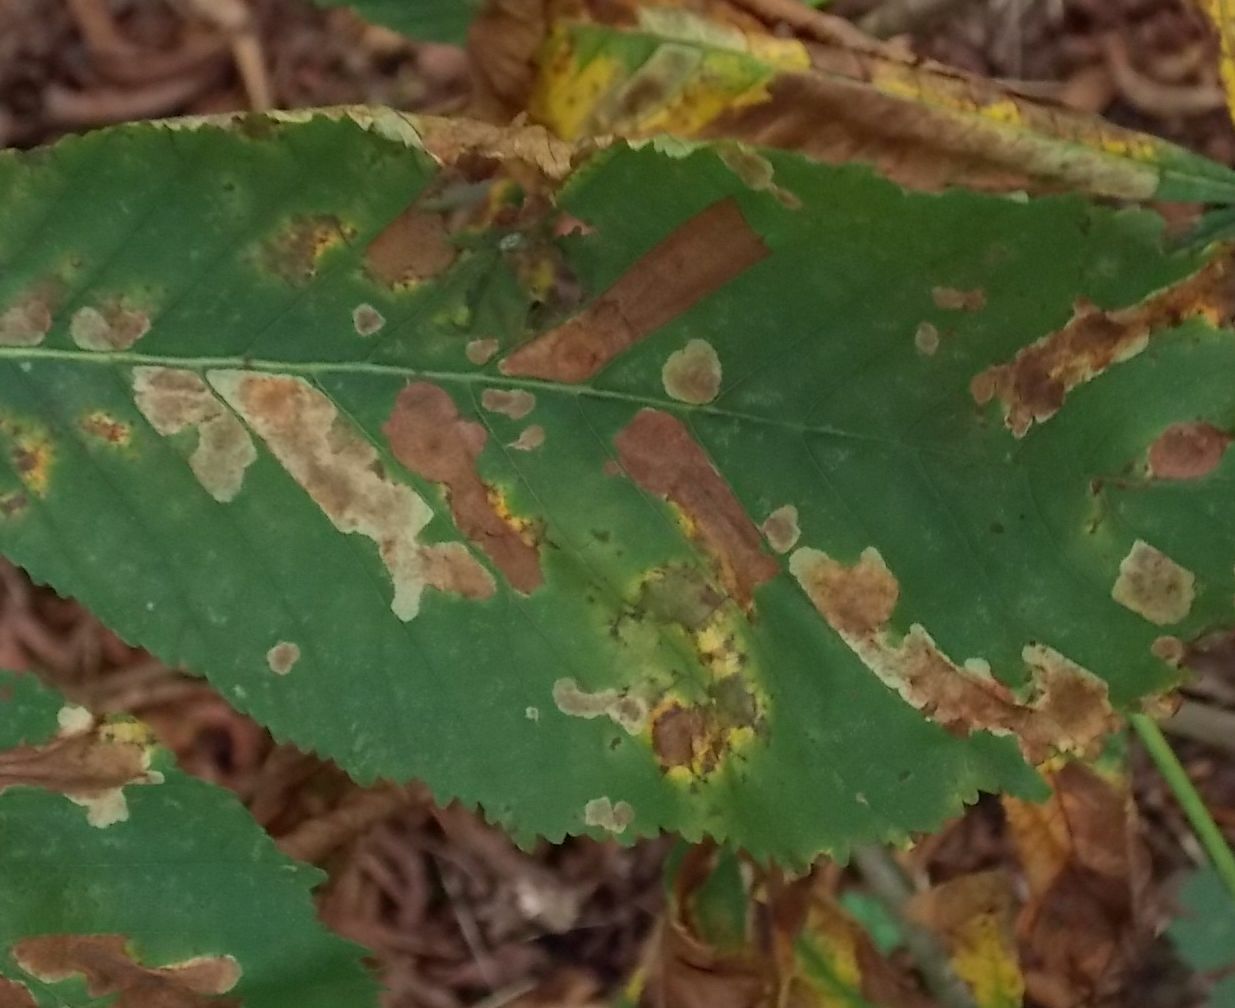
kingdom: Animalia
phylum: Arthropoda
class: Insecta
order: Lepidoptera
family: Gracillariidae
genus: Cameraria
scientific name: Cameraria ohridella
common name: Horse-chestnut leaf-miner
